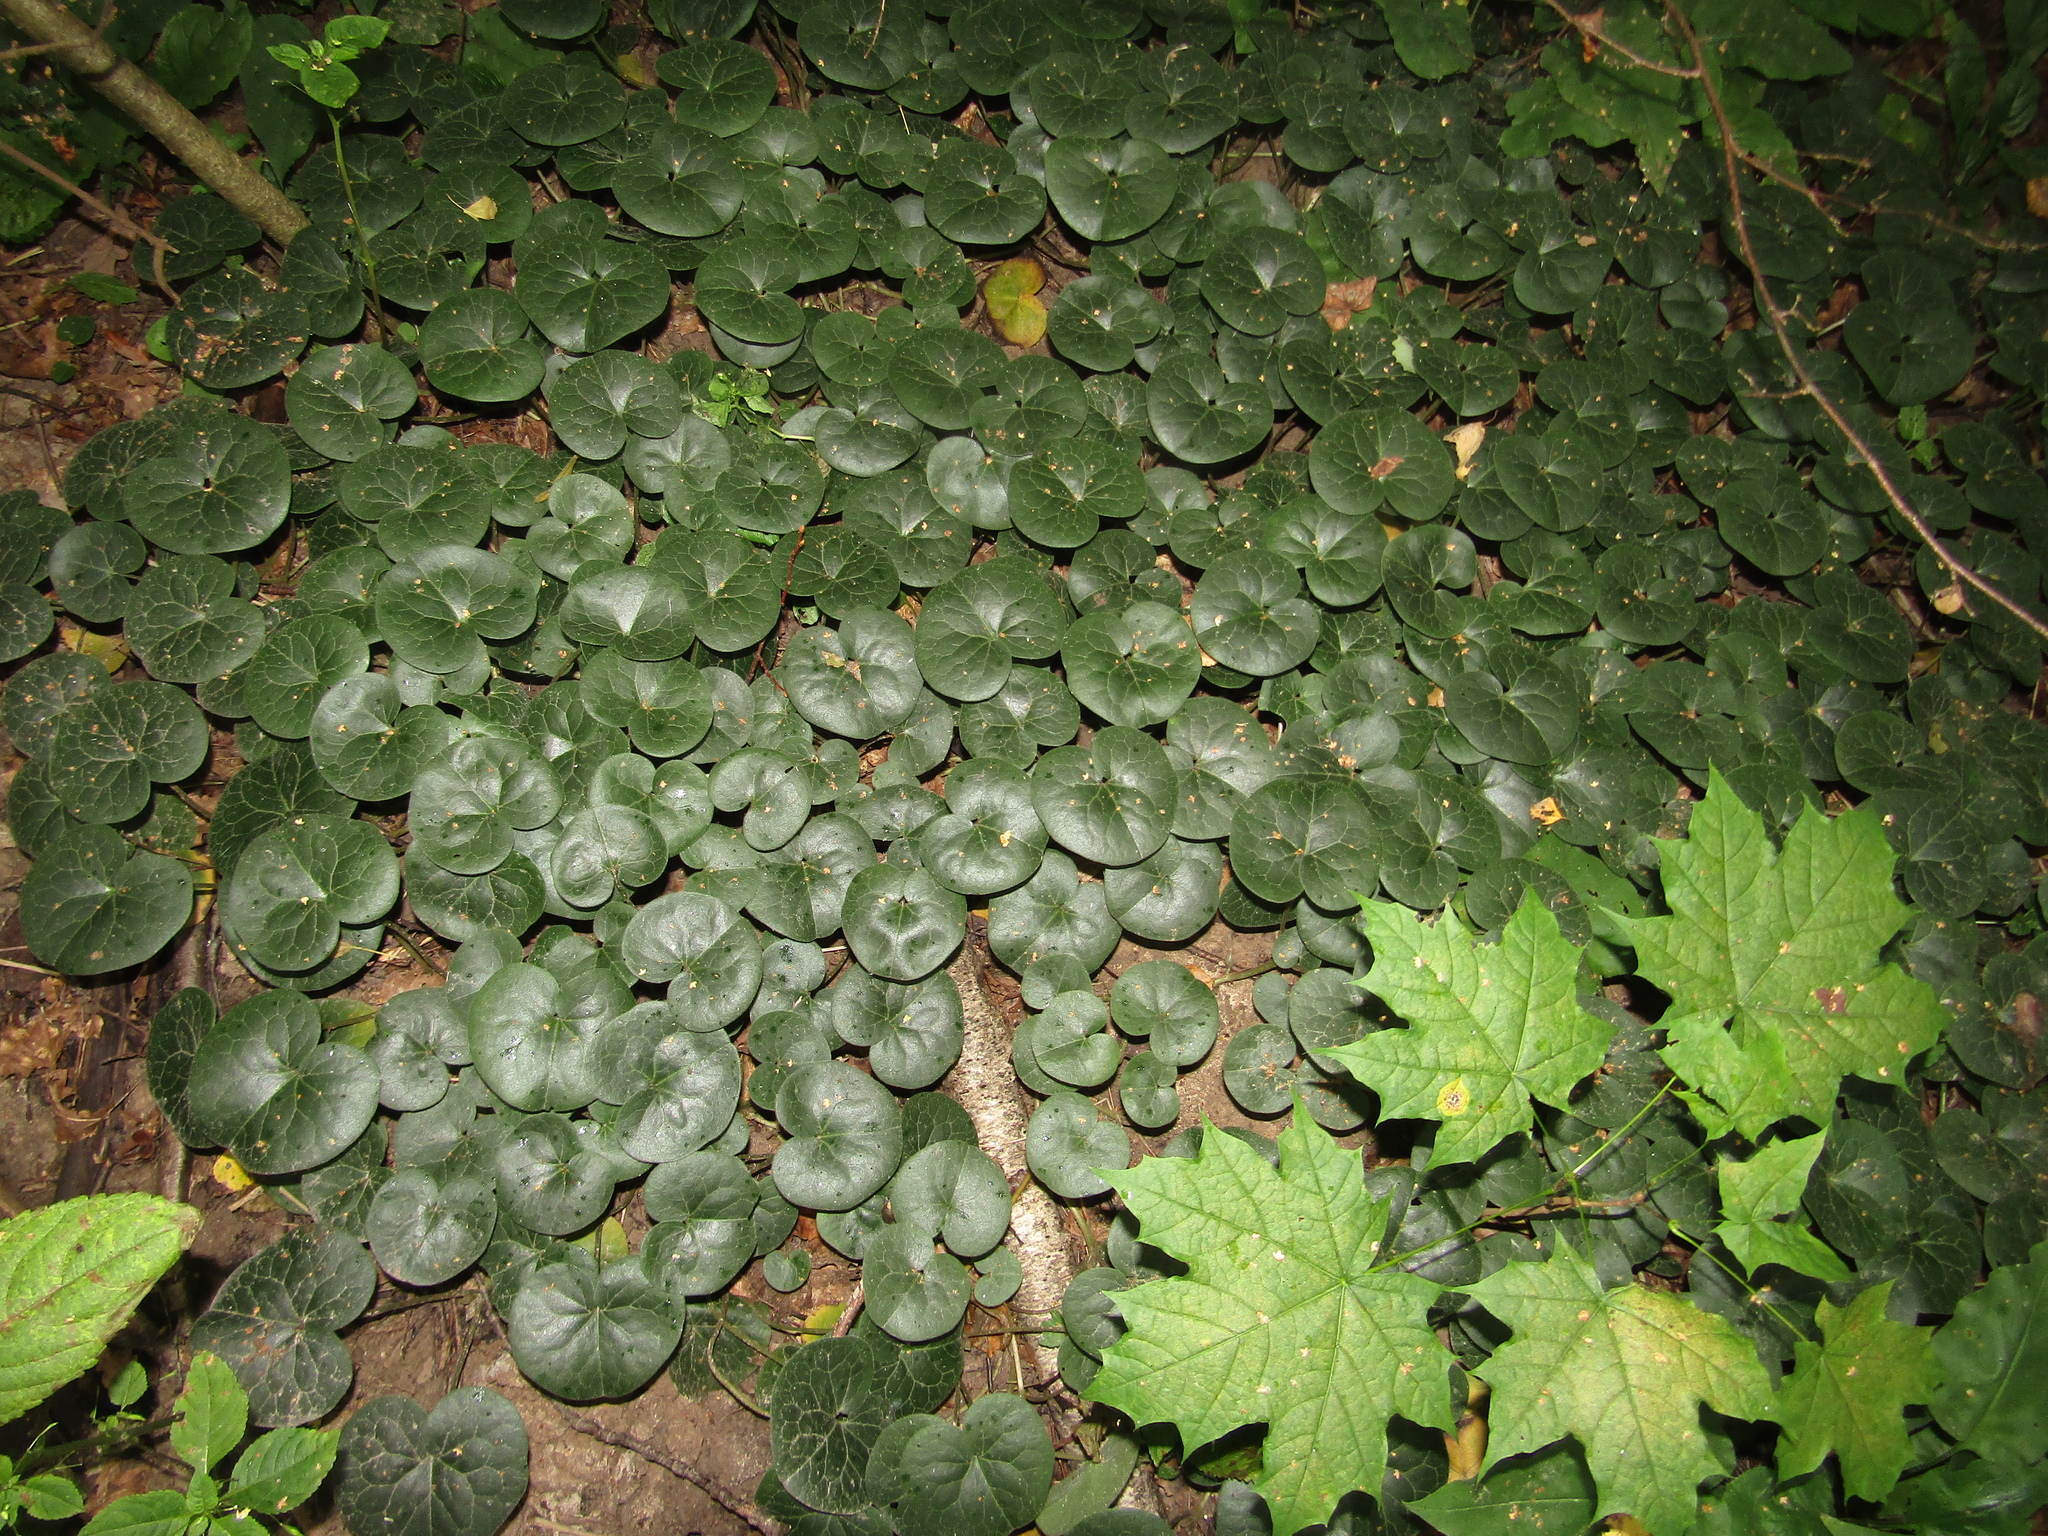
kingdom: Plantae
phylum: Tracheophyta
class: Magnoliopsida
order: Piperales
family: Aristolochiaceae
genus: Asarum
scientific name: Asarum europaeum
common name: Asarabacca
